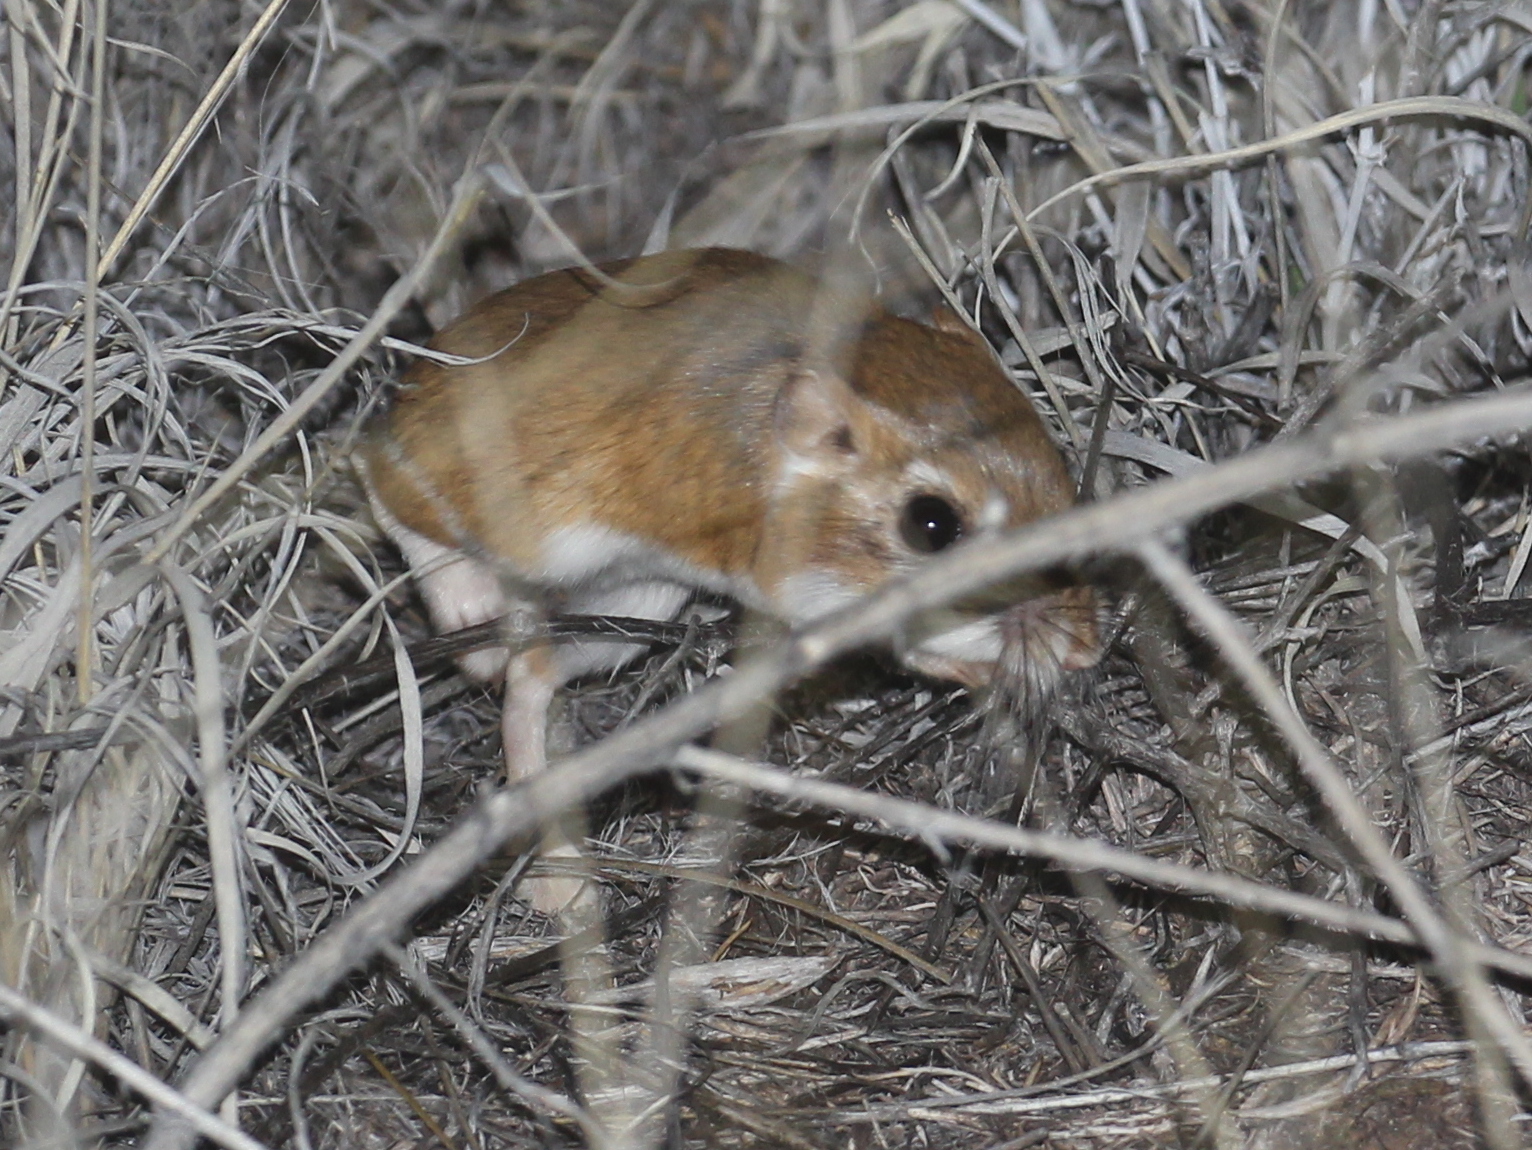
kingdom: Animalia
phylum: Chordata
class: Mammalia
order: Rodentia
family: Heteromyidae
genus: Dipodomys
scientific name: Dipodomys ordii
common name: Ord's kangaroo rat
